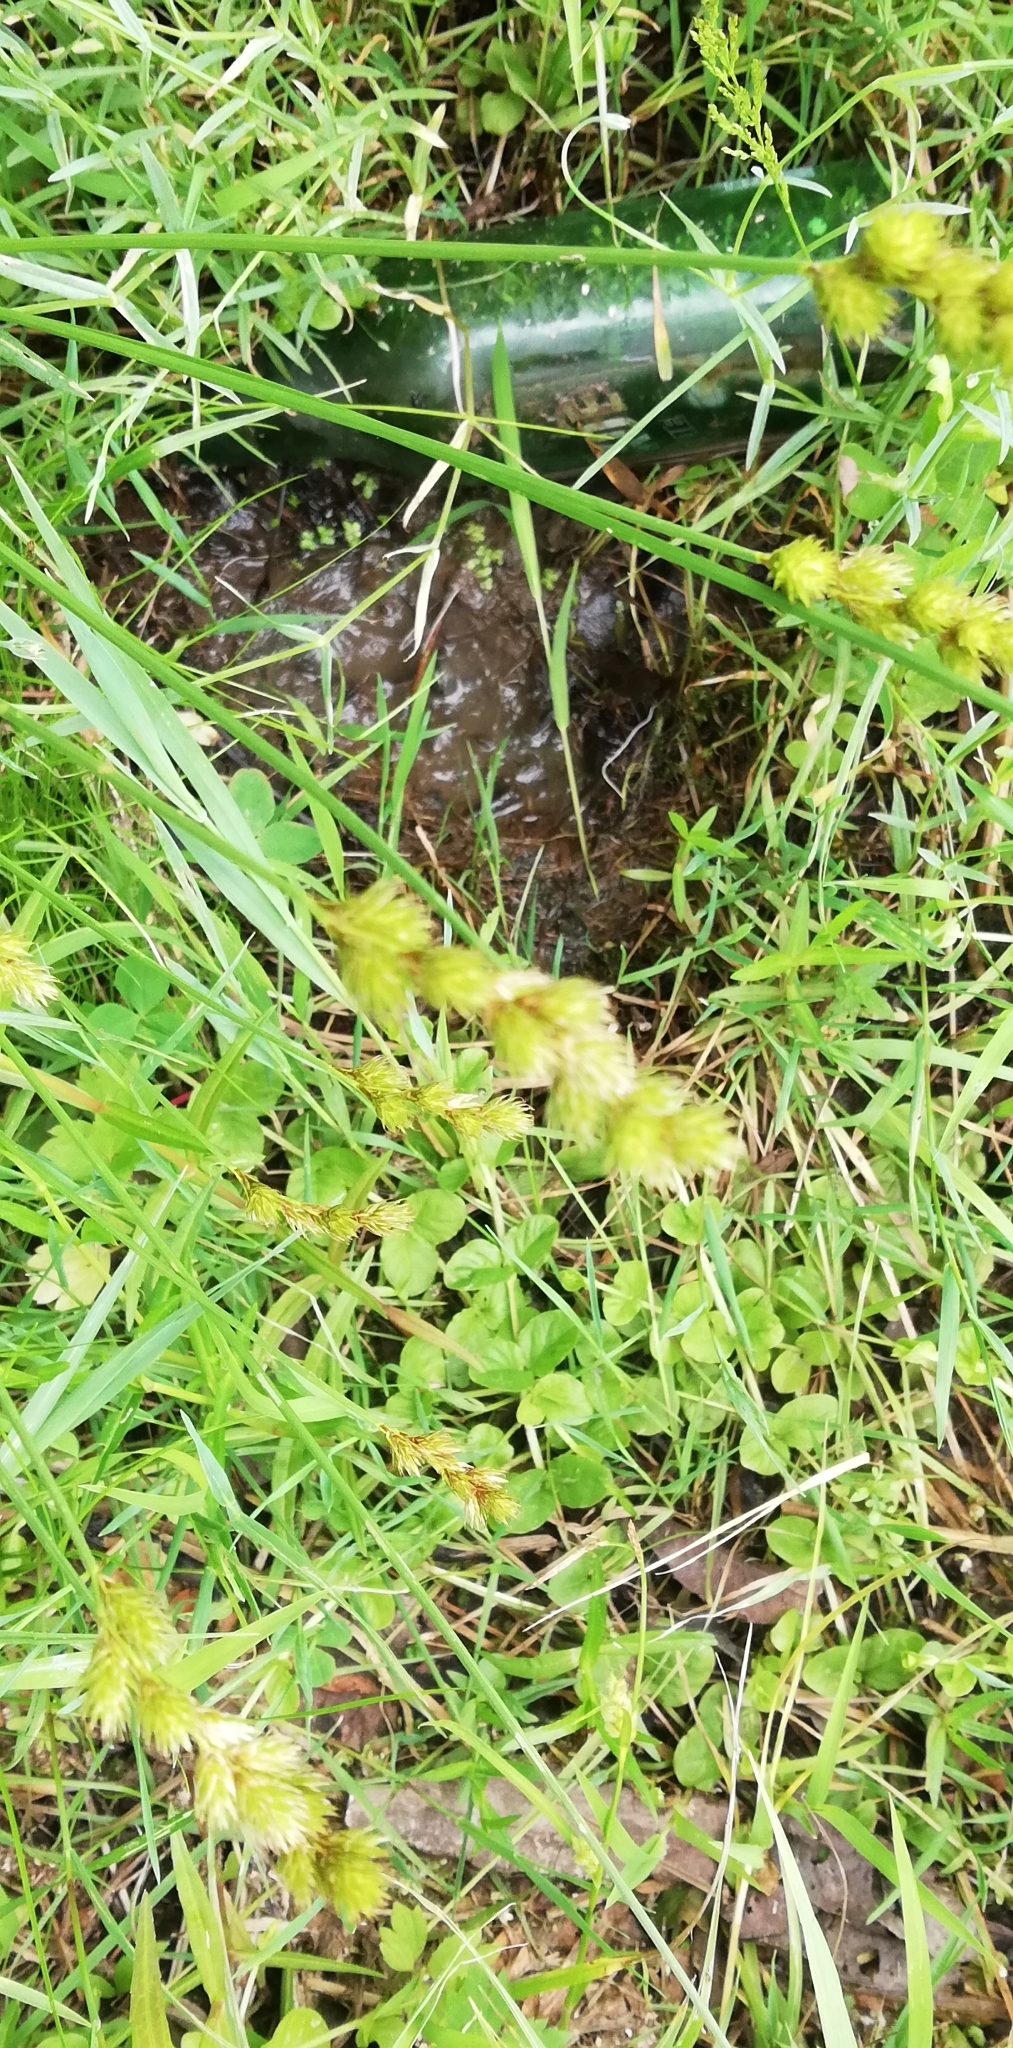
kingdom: Plantae
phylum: Tracheophyta
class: Liliopsida
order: Poales
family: Cyperaceae
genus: Carex
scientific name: Carex leporina
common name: Oval sedge
